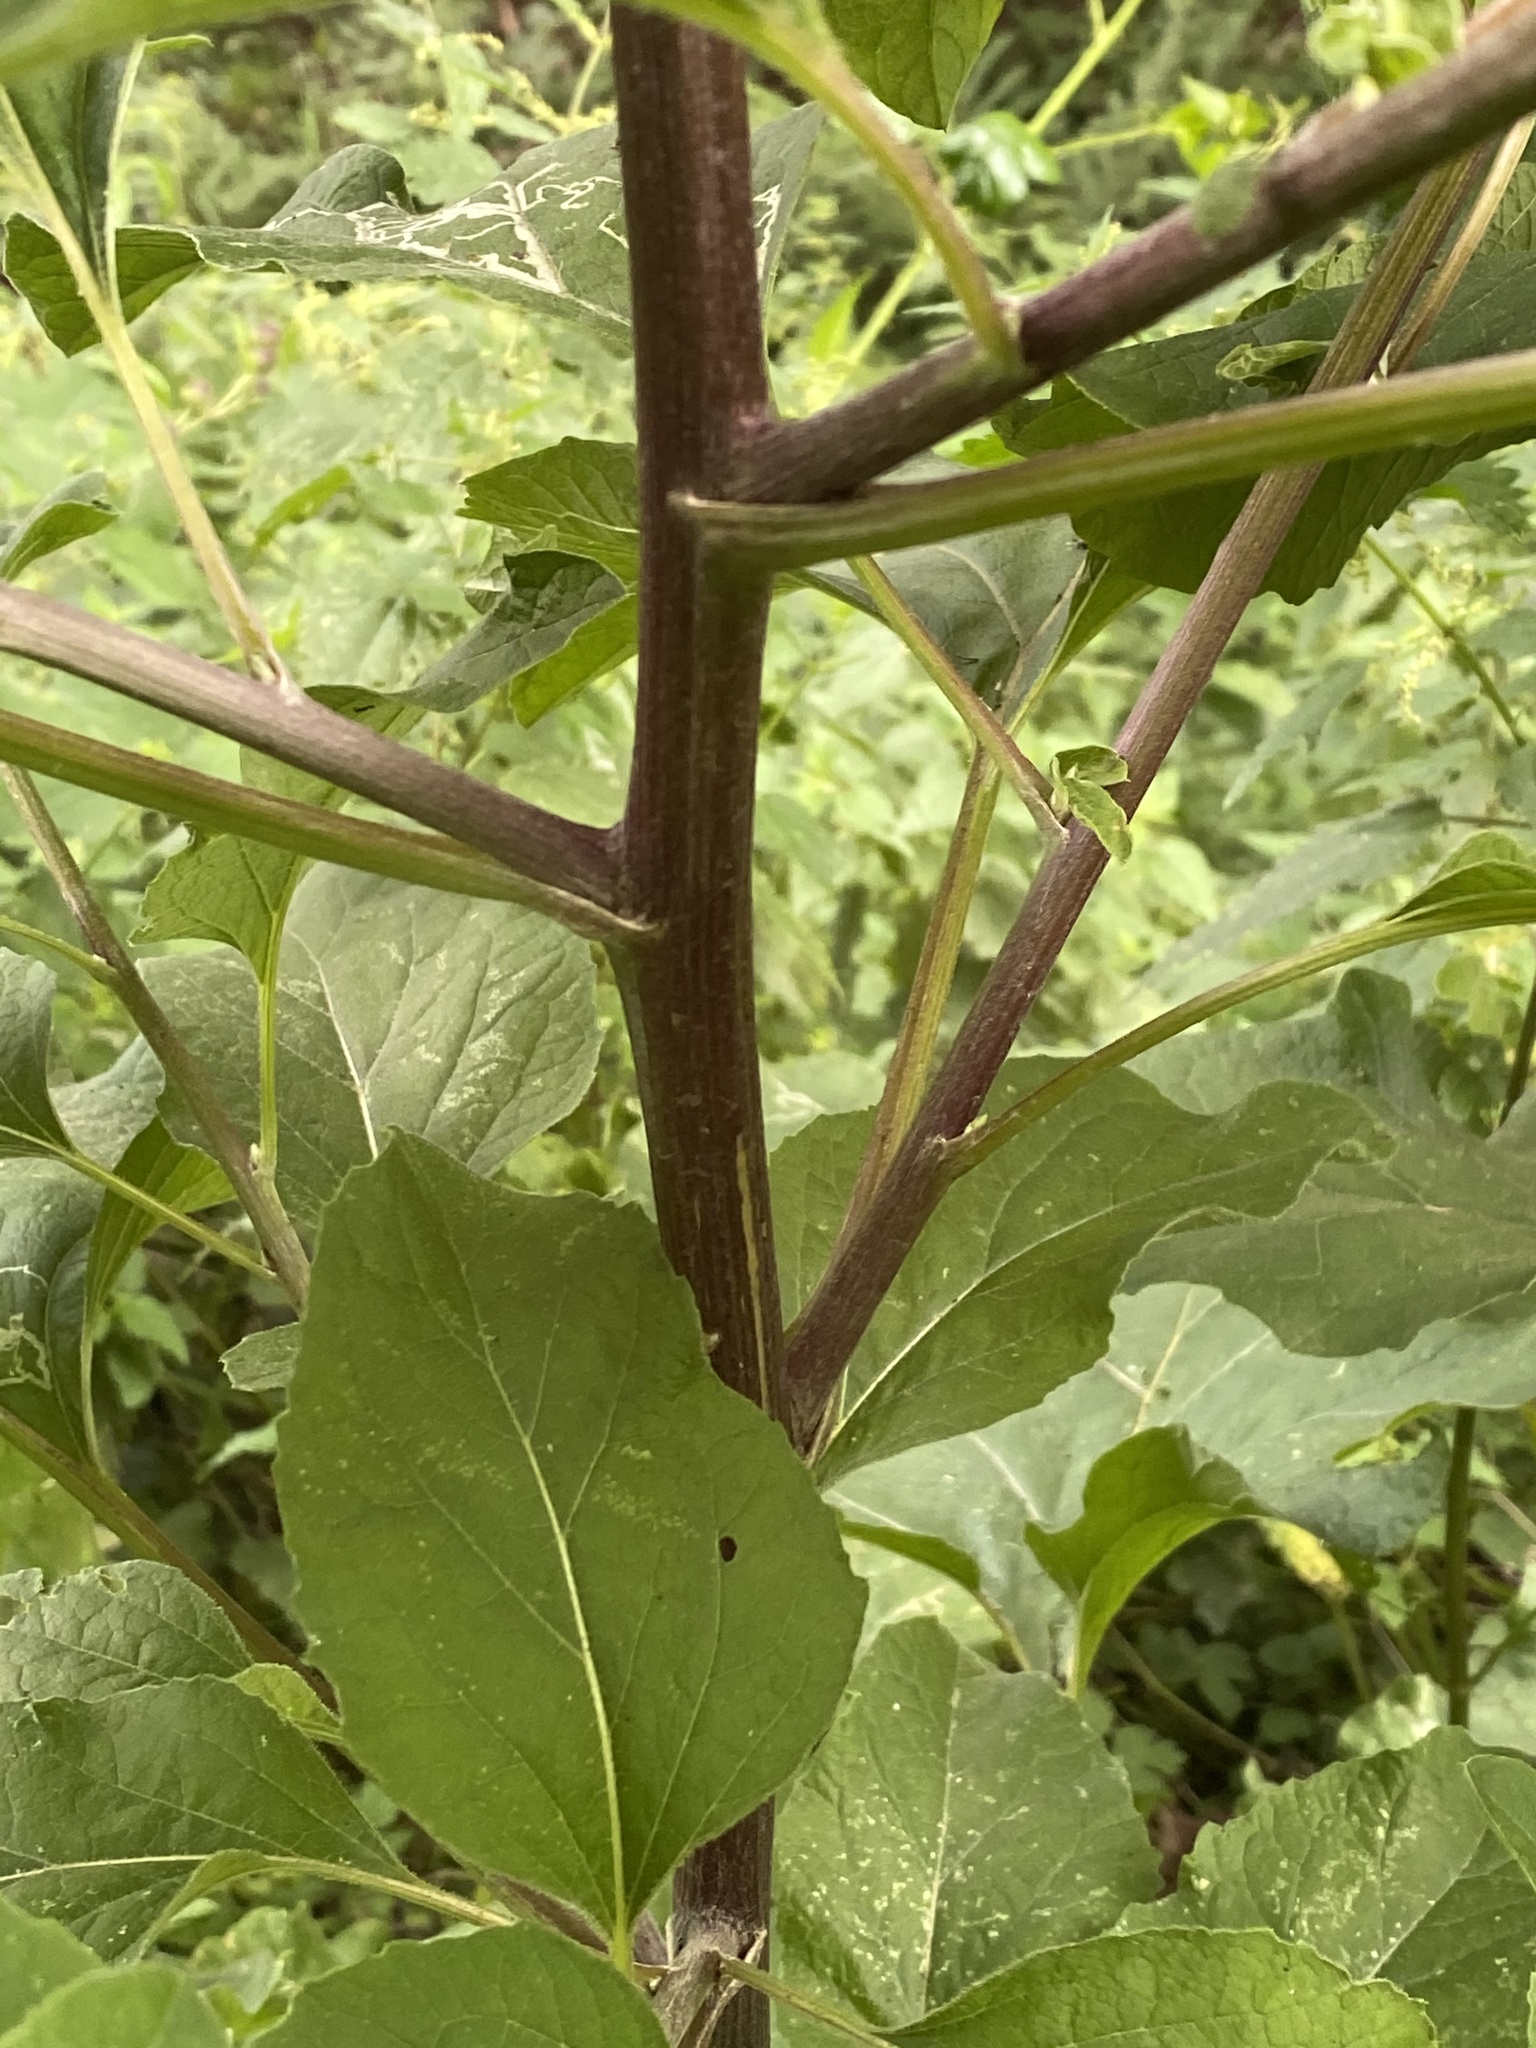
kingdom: Plantae
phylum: Tracheophyta
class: Magnoliopsida
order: Asterales
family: Asteraceae
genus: Arctium
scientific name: Arctium minus
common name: Lesser burdock
